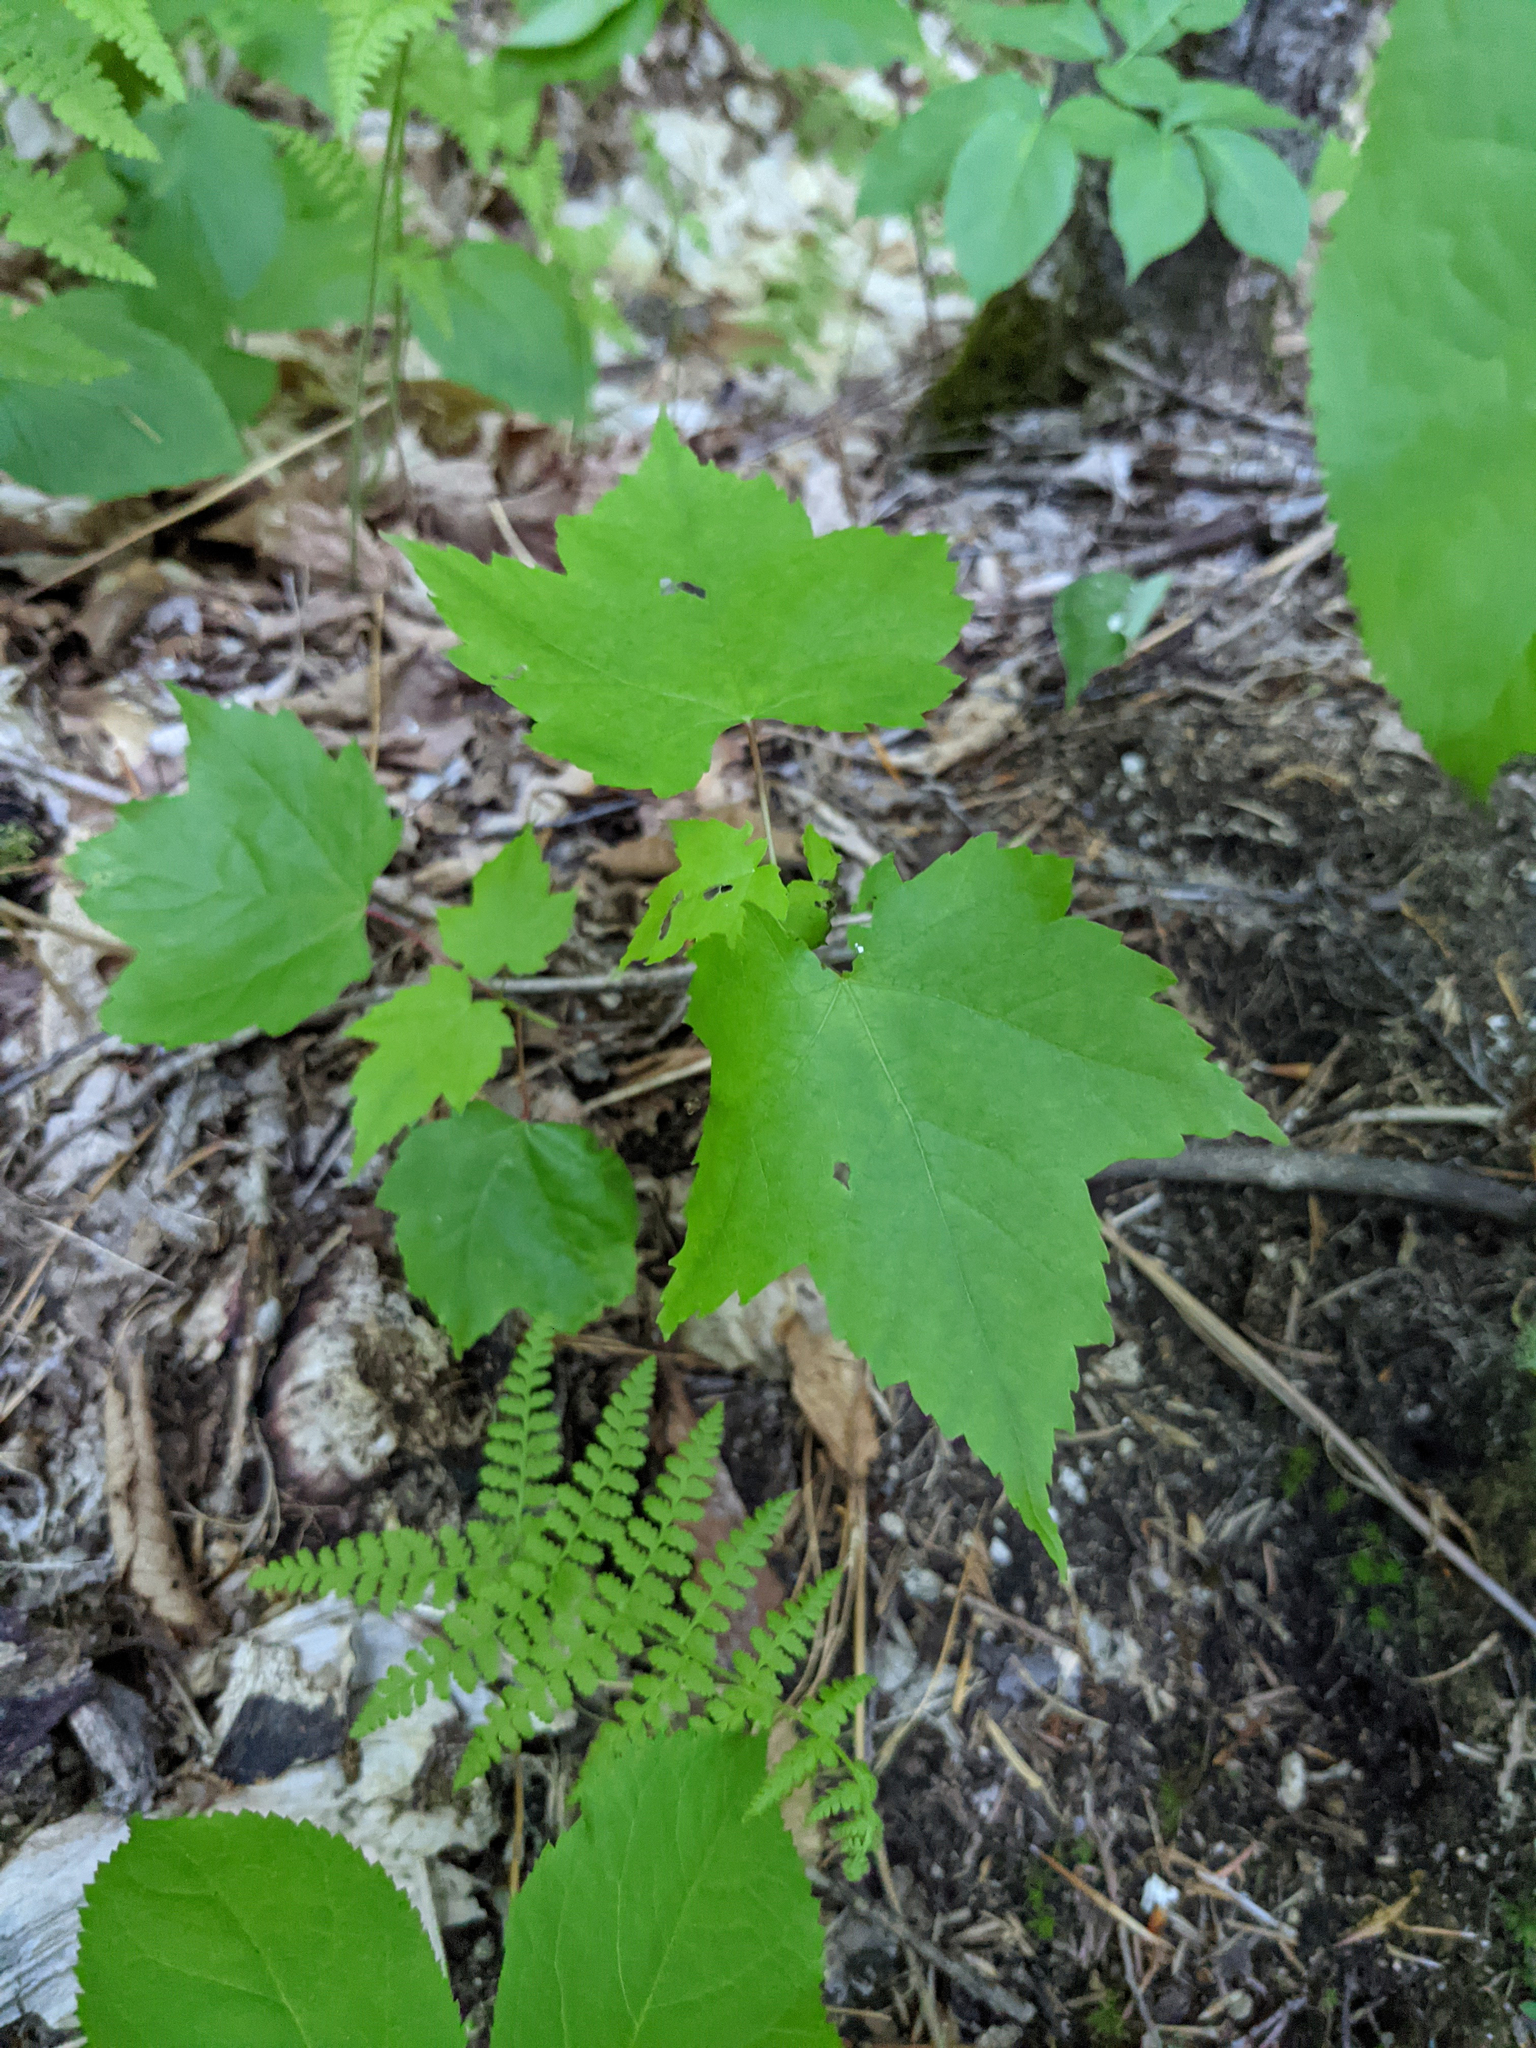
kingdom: Plantae
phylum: Tracheophyta
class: Magnoliopsida
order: Sapindales
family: Sapindaceae
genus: Acer
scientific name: Acer rubrum
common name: Red maple
